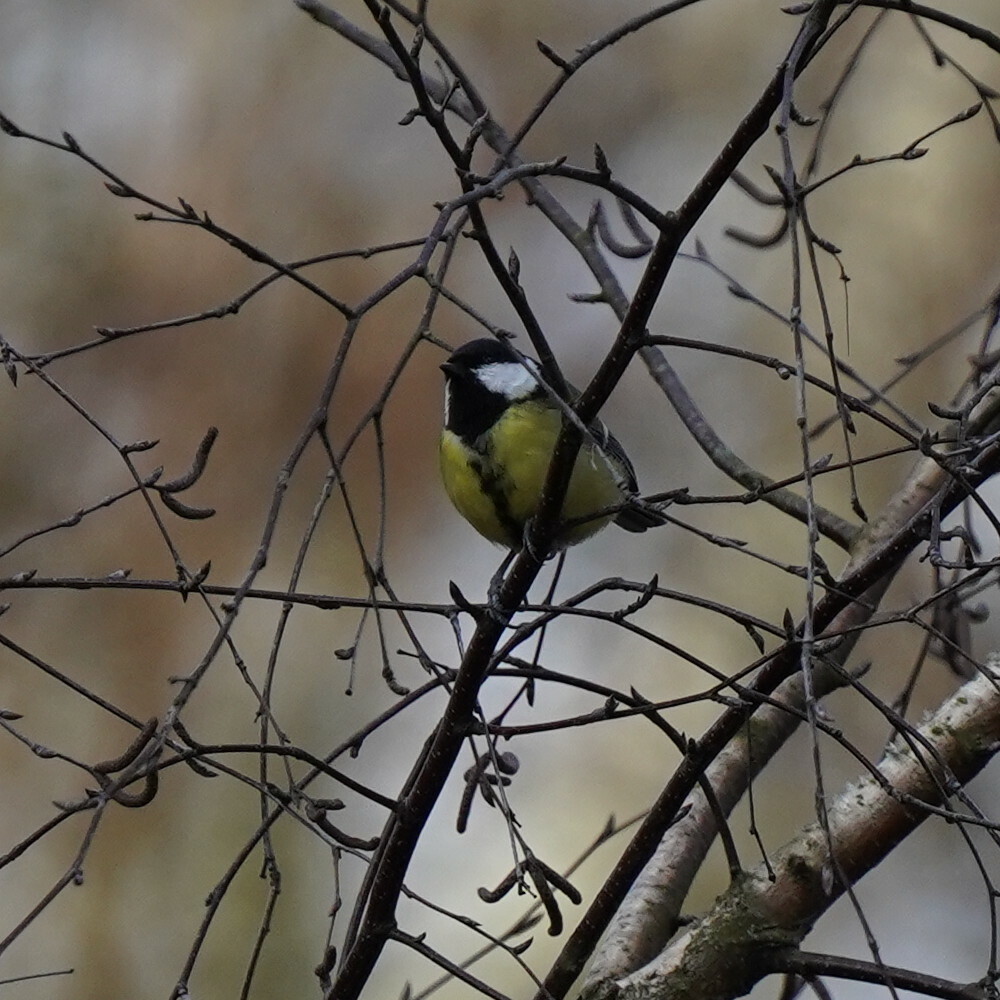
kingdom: Animalia
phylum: Chordata
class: Aves
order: Passeriformes
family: Paridae
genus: Parus
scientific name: Parus major
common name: Great tit
